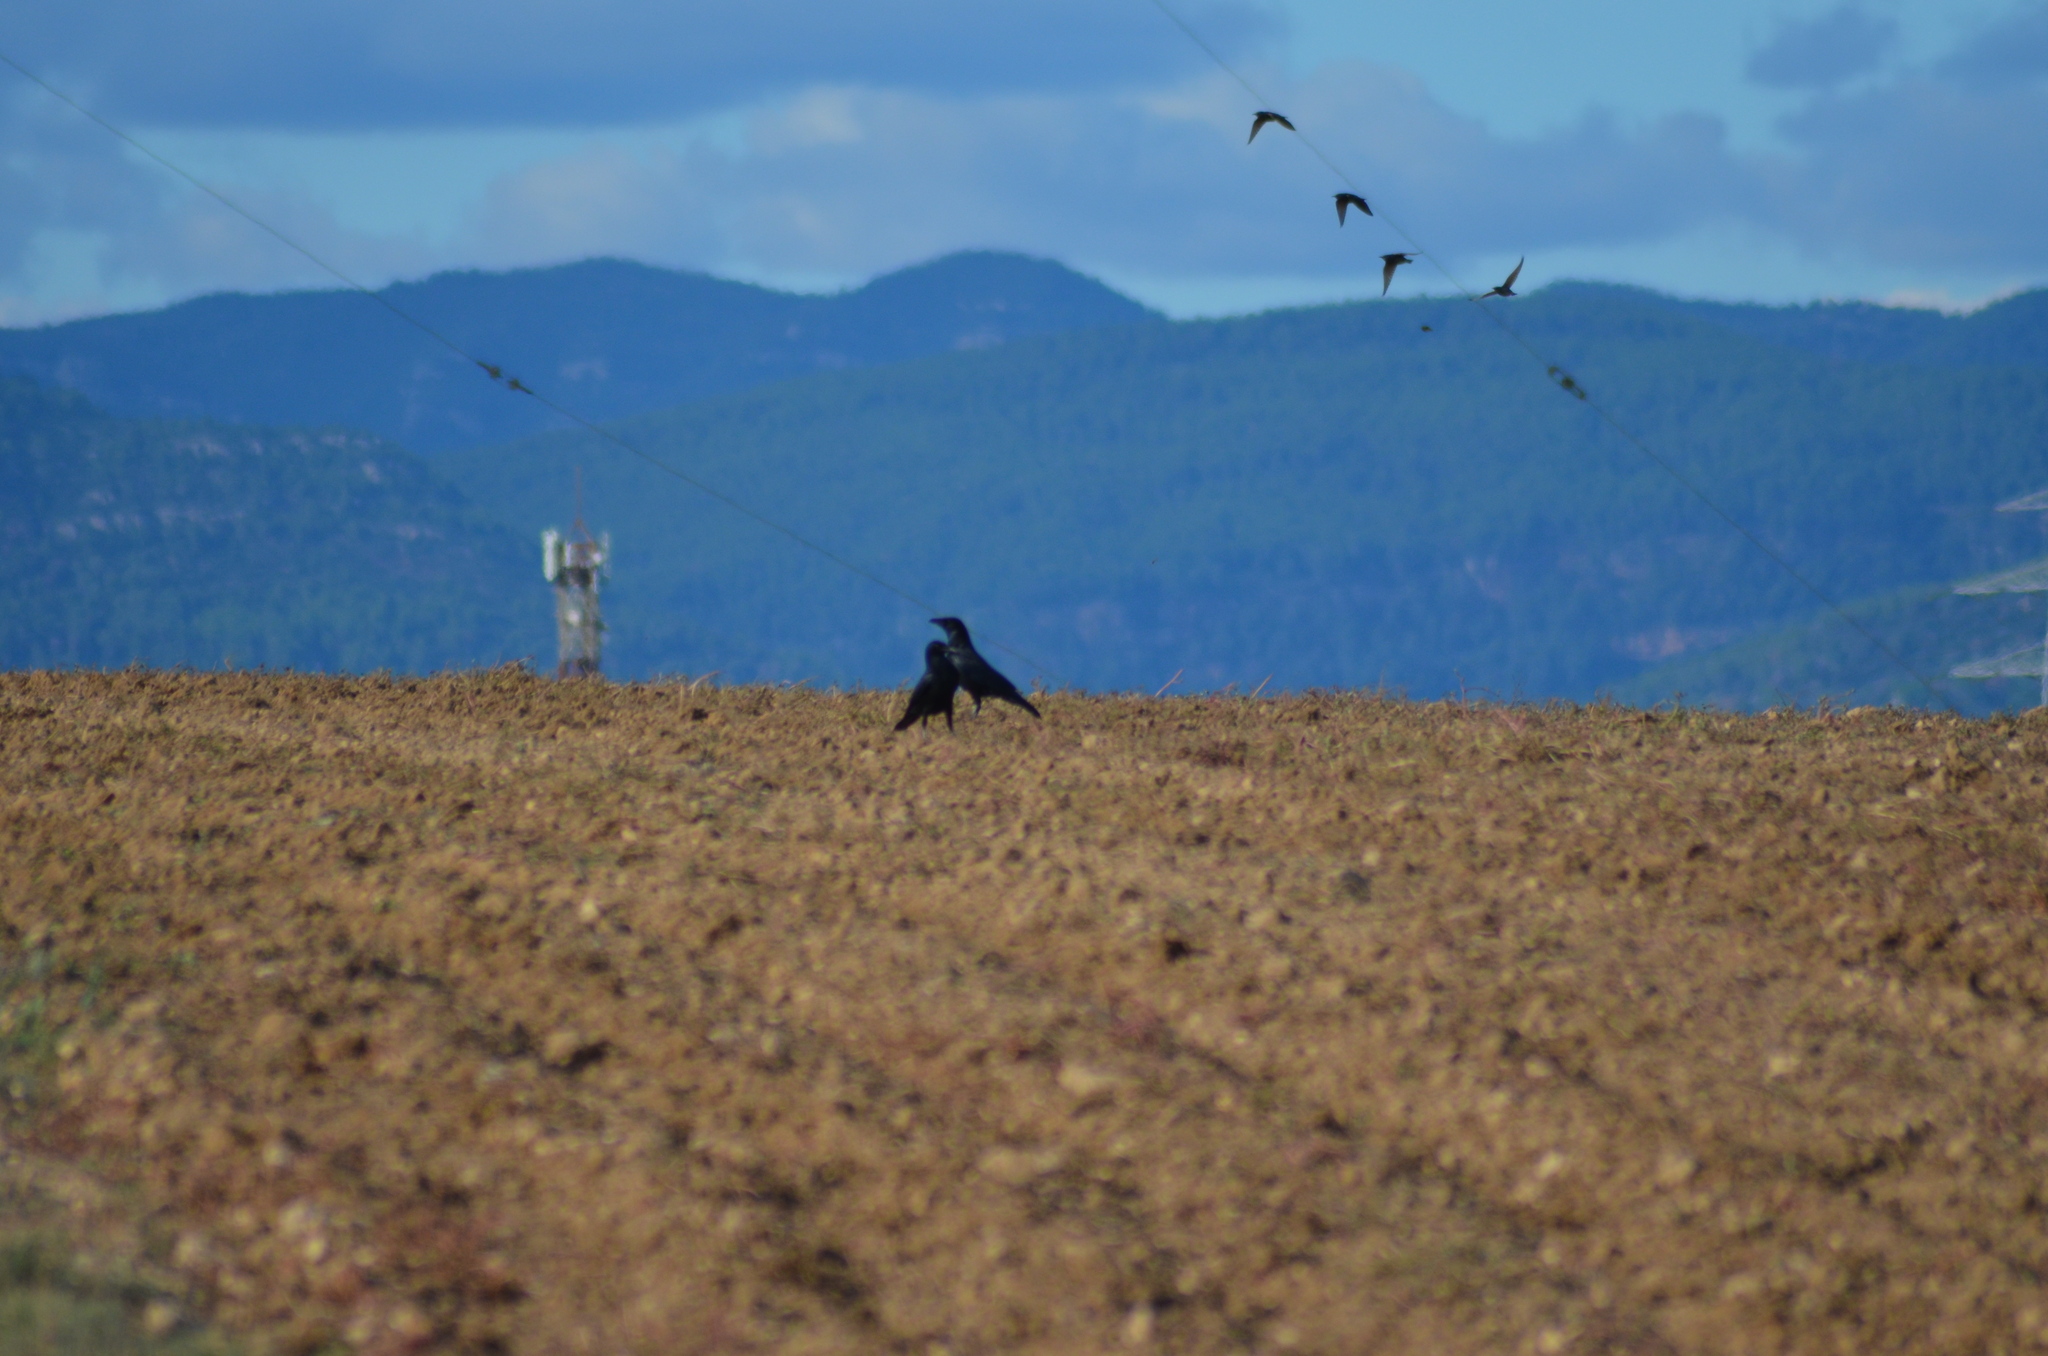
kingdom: Animalia
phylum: Chordata
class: Aves
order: Passeriformes
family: Corvidae
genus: Corvus
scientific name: Corvus corone
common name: Carrion crow
